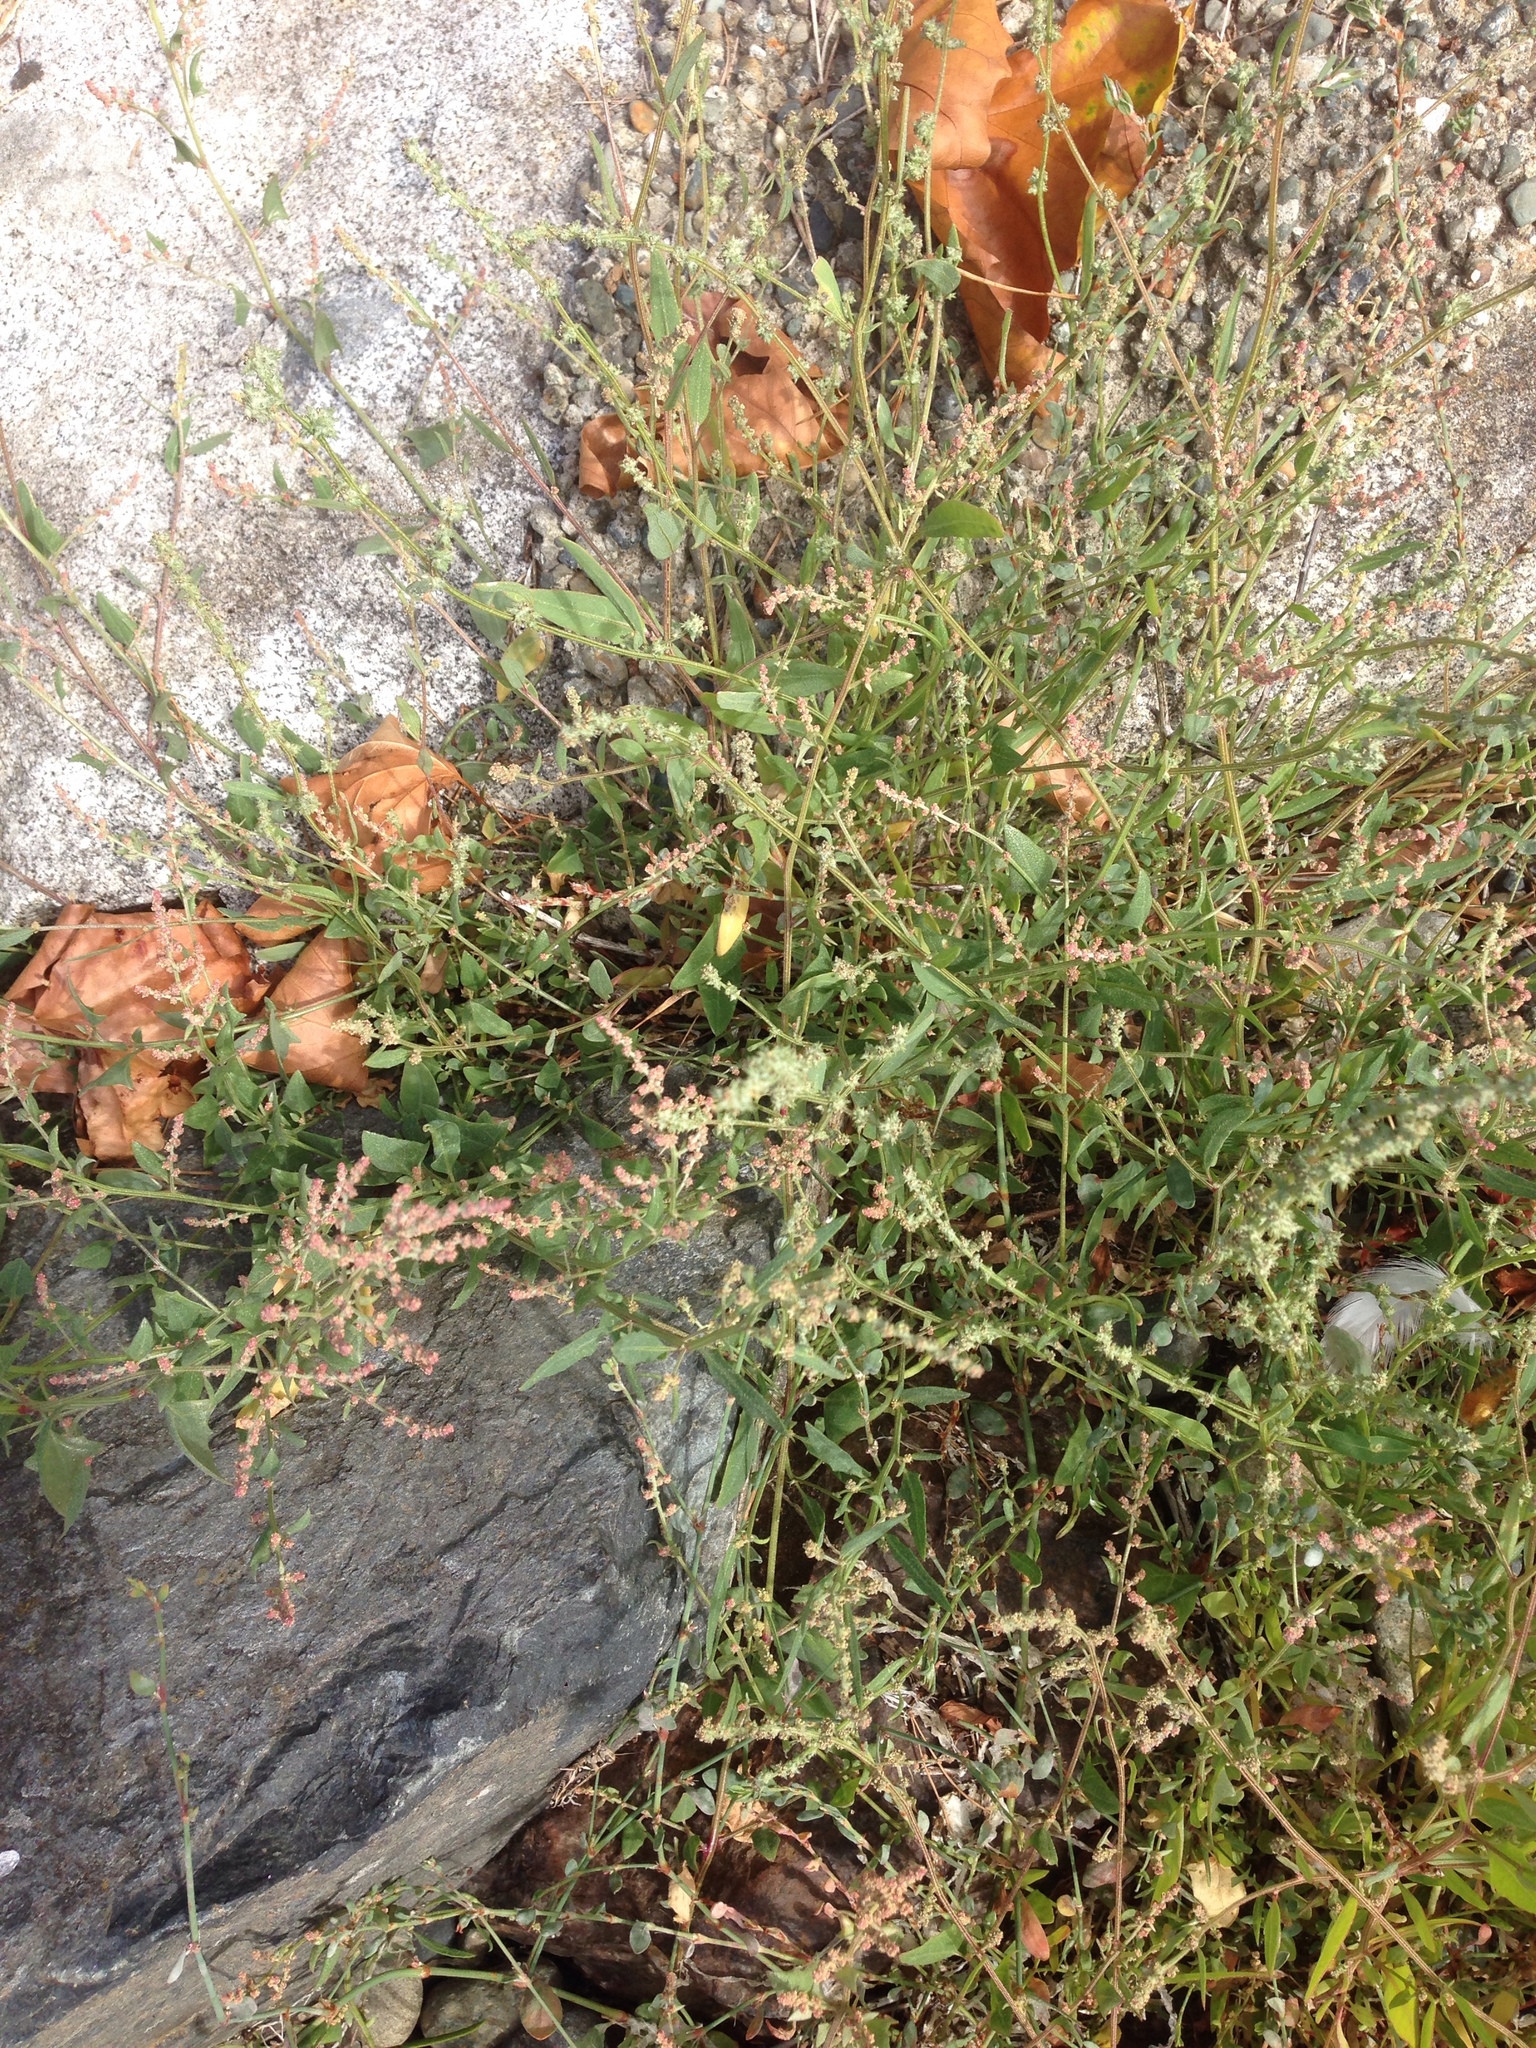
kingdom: Plantae
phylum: Tracheophyta
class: Magnoliopsida
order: Caryophyllales
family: Amaranthaceae
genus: Chenopodium
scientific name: Chenopodium album
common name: Fat-hen
